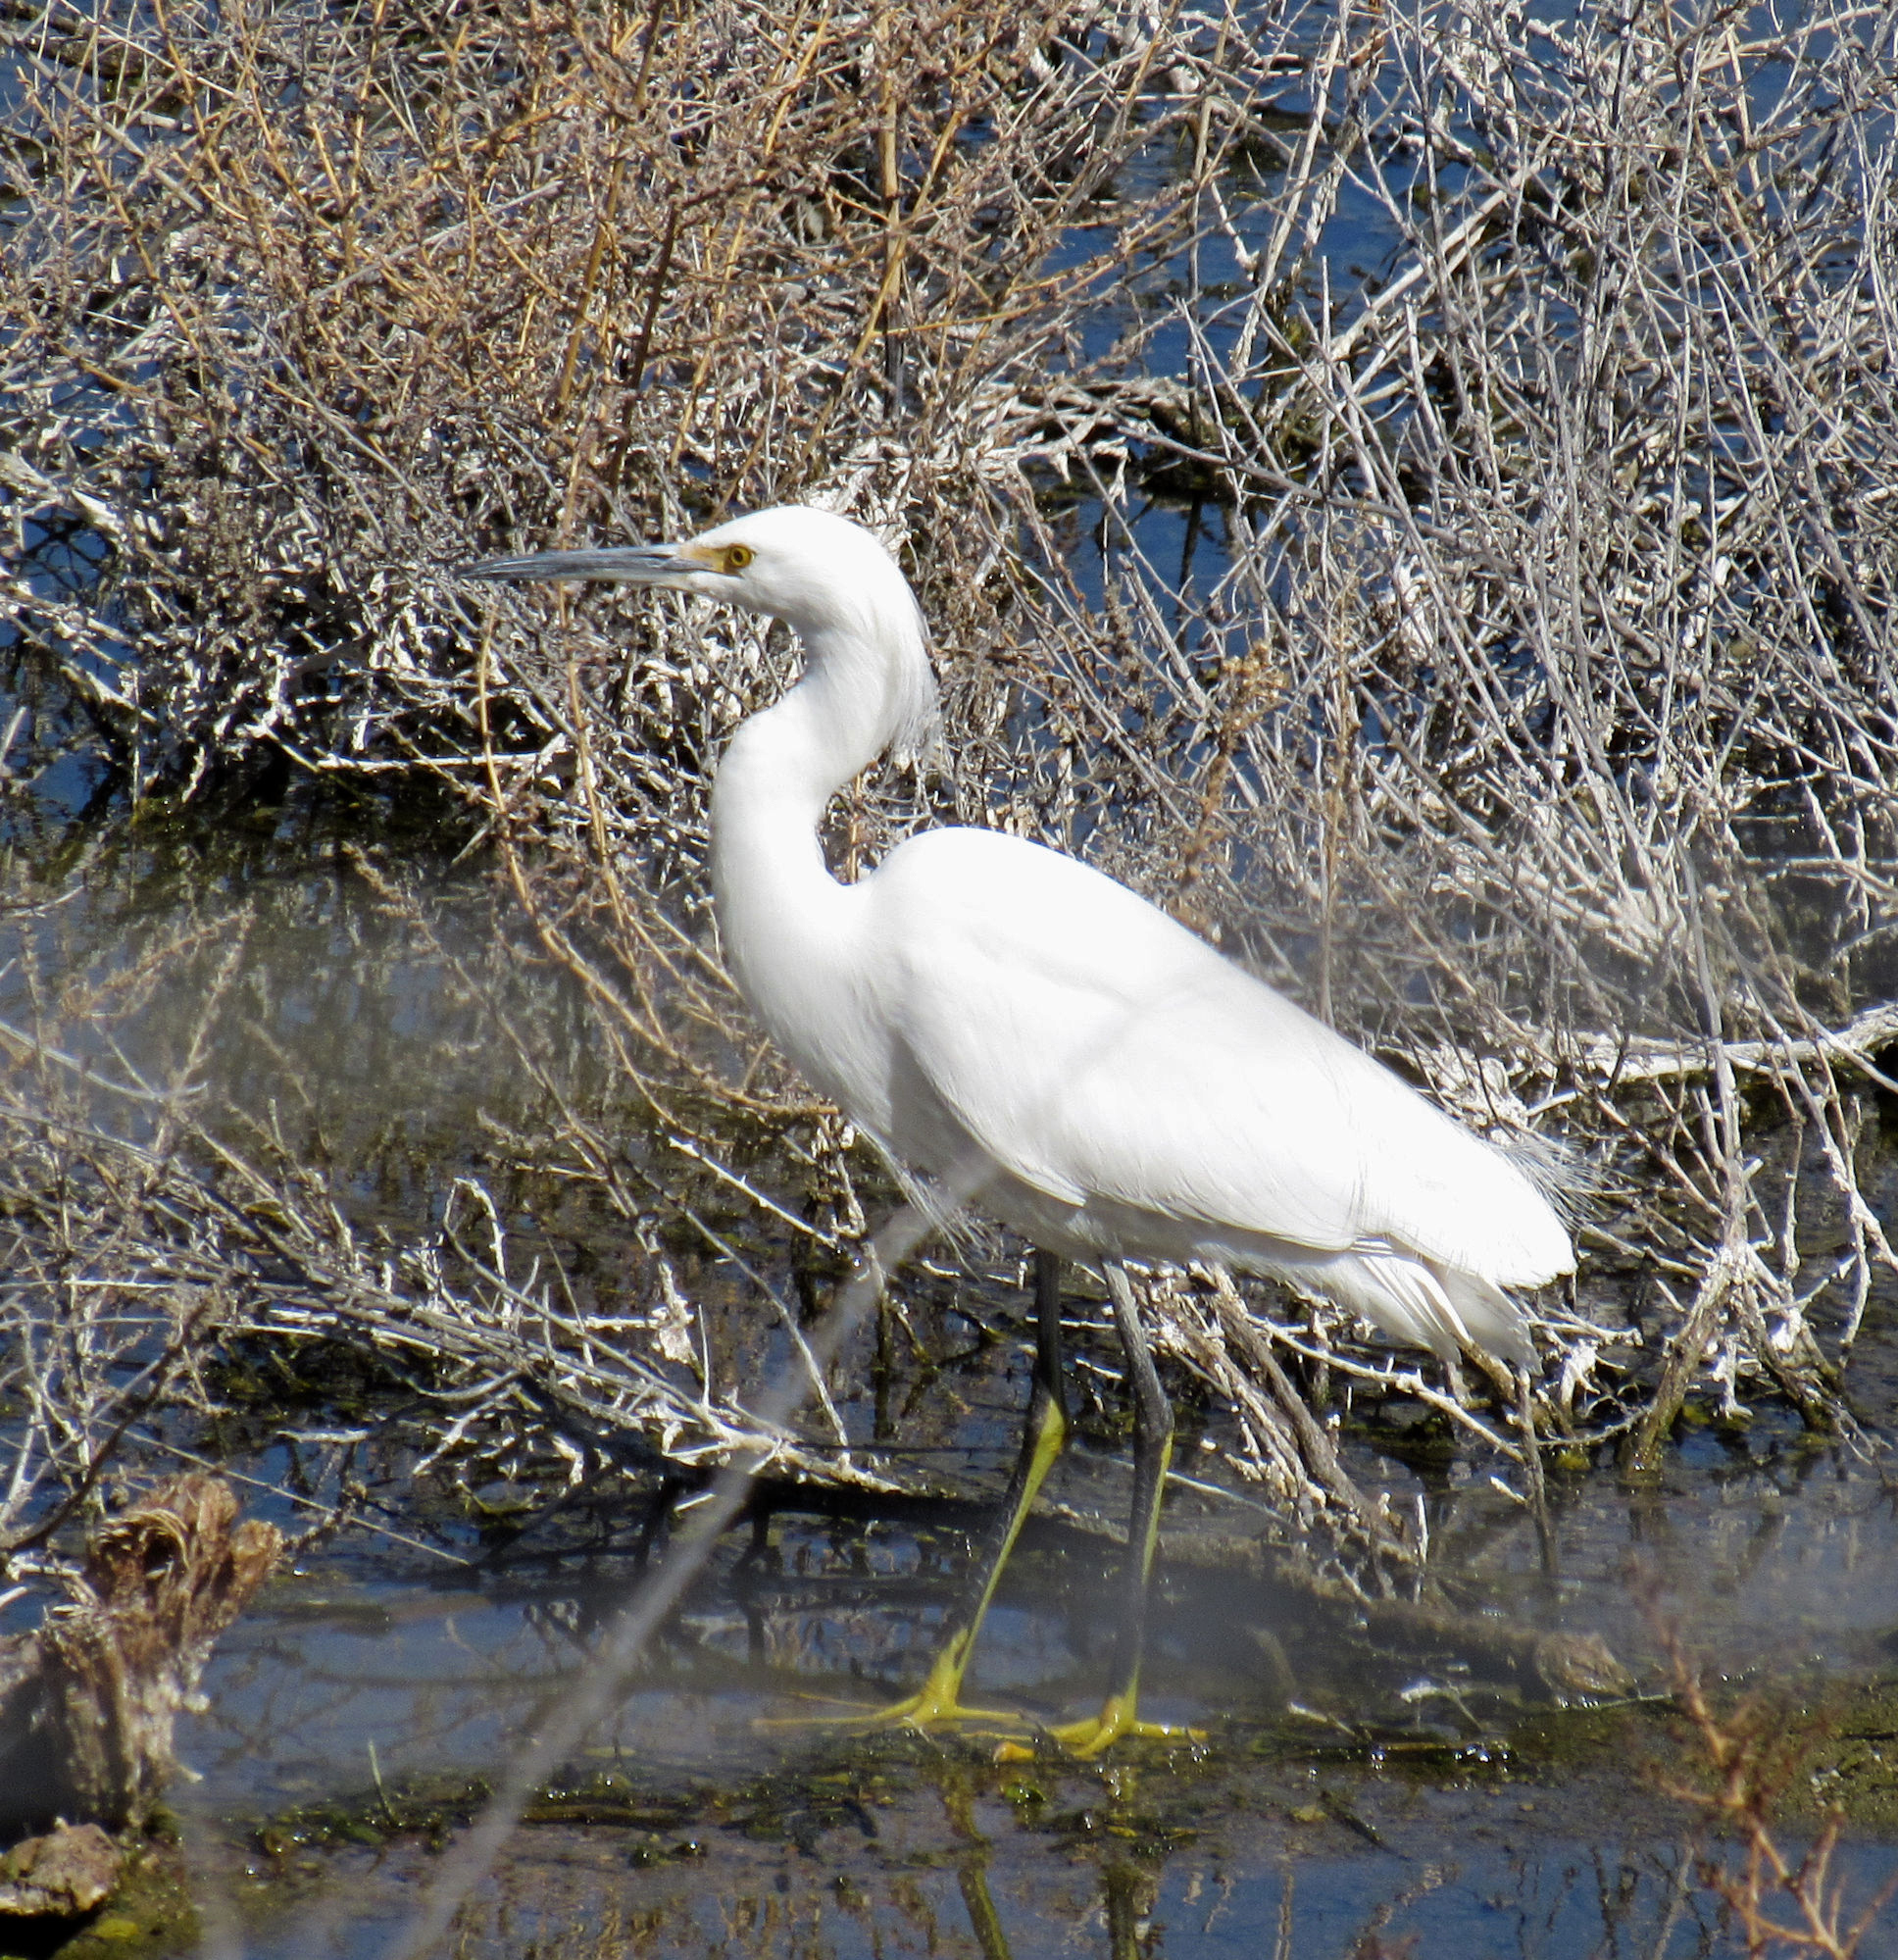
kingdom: Animalia
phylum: Chordata
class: Aves
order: Pelecaniformes
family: Ardeidae
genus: Egretta
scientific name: Egretta thula
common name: Snowy egret
